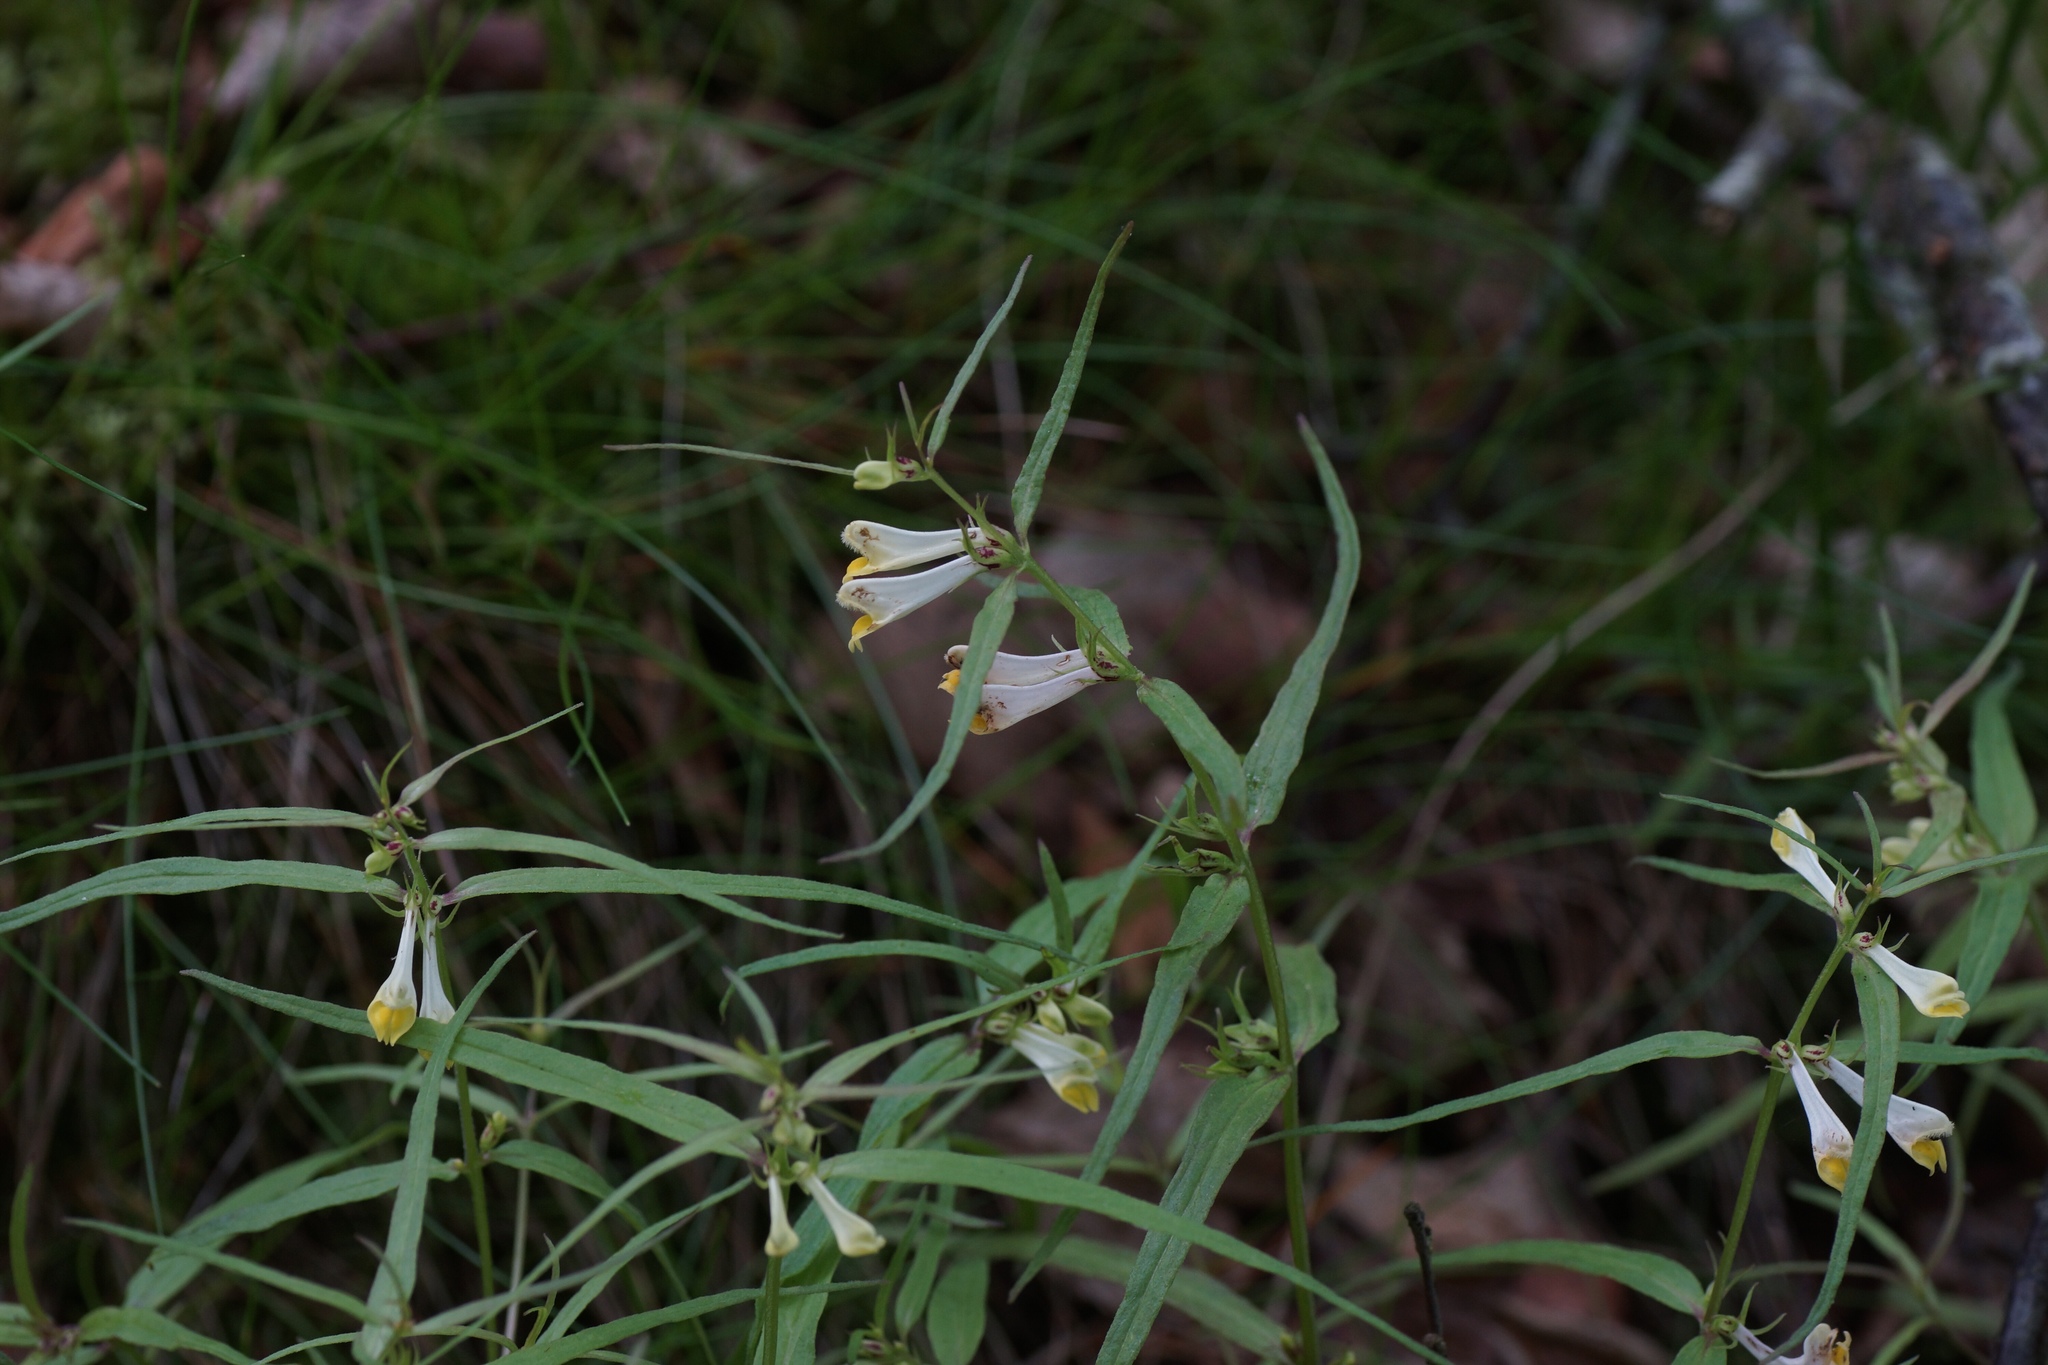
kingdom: Plantae
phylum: Tracheophyta
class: Magnoliopsida
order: Lamiales
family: Orobanchaceae
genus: Melampyrum
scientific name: Melampyrum pratense
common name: Common cow-wheat
